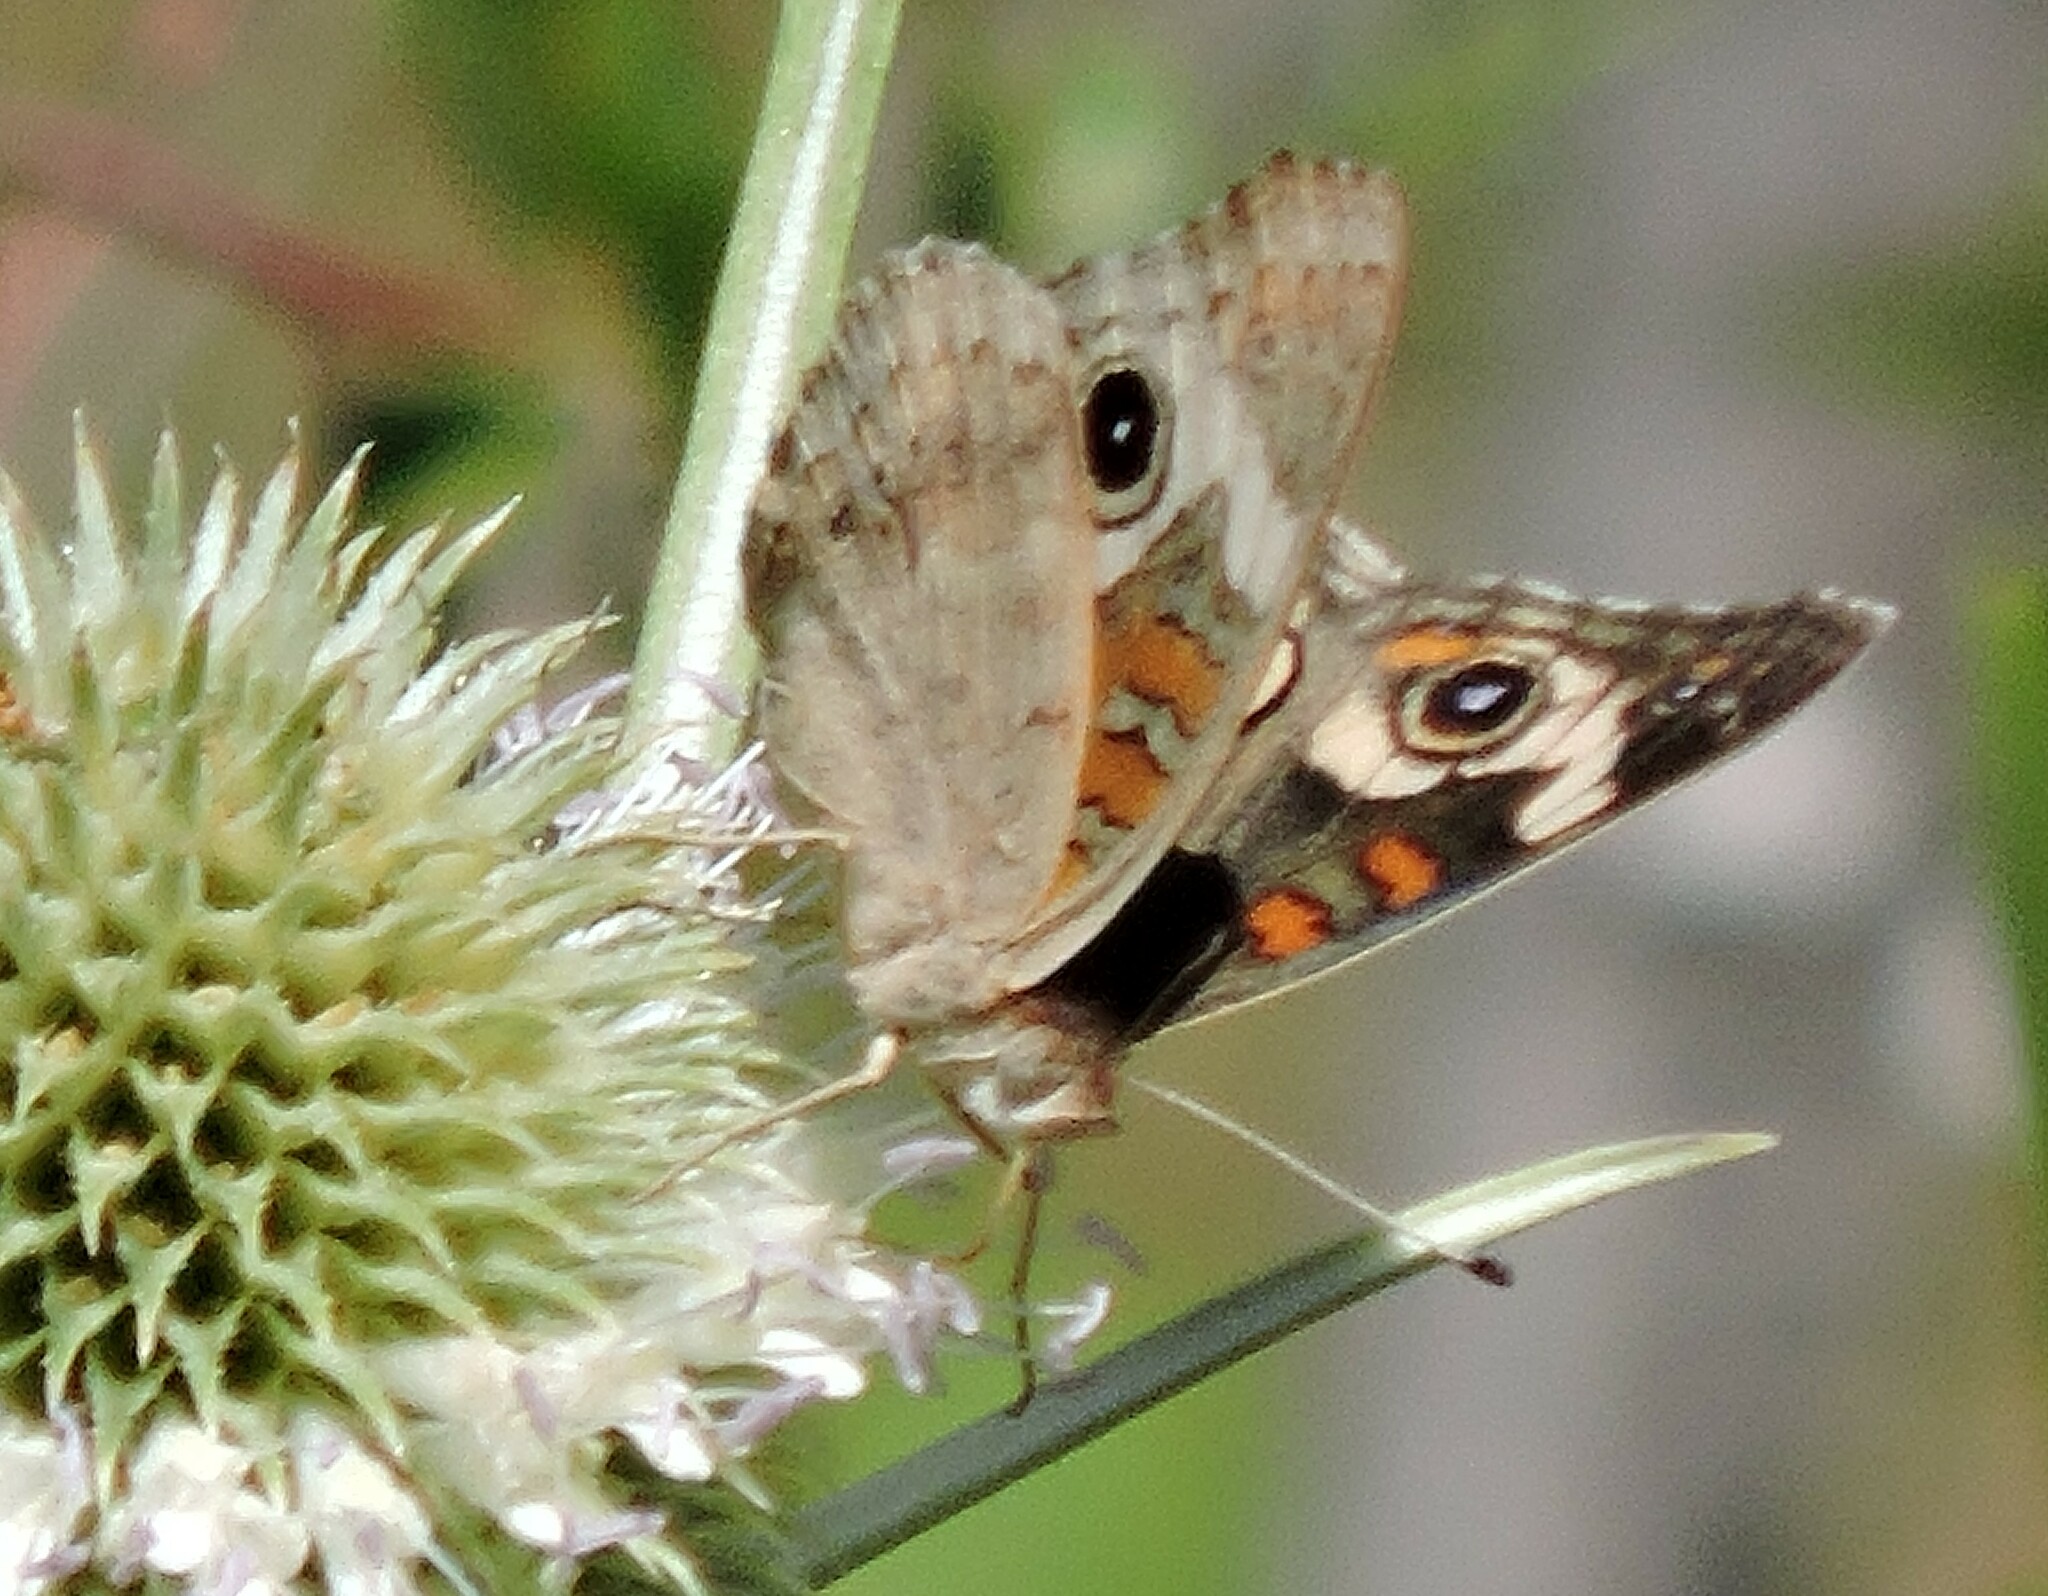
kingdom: Animalia
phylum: Arthropoda
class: Insecta
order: Lepidoptera
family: Nymphalidae
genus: Junonia
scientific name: Junonia grisea
